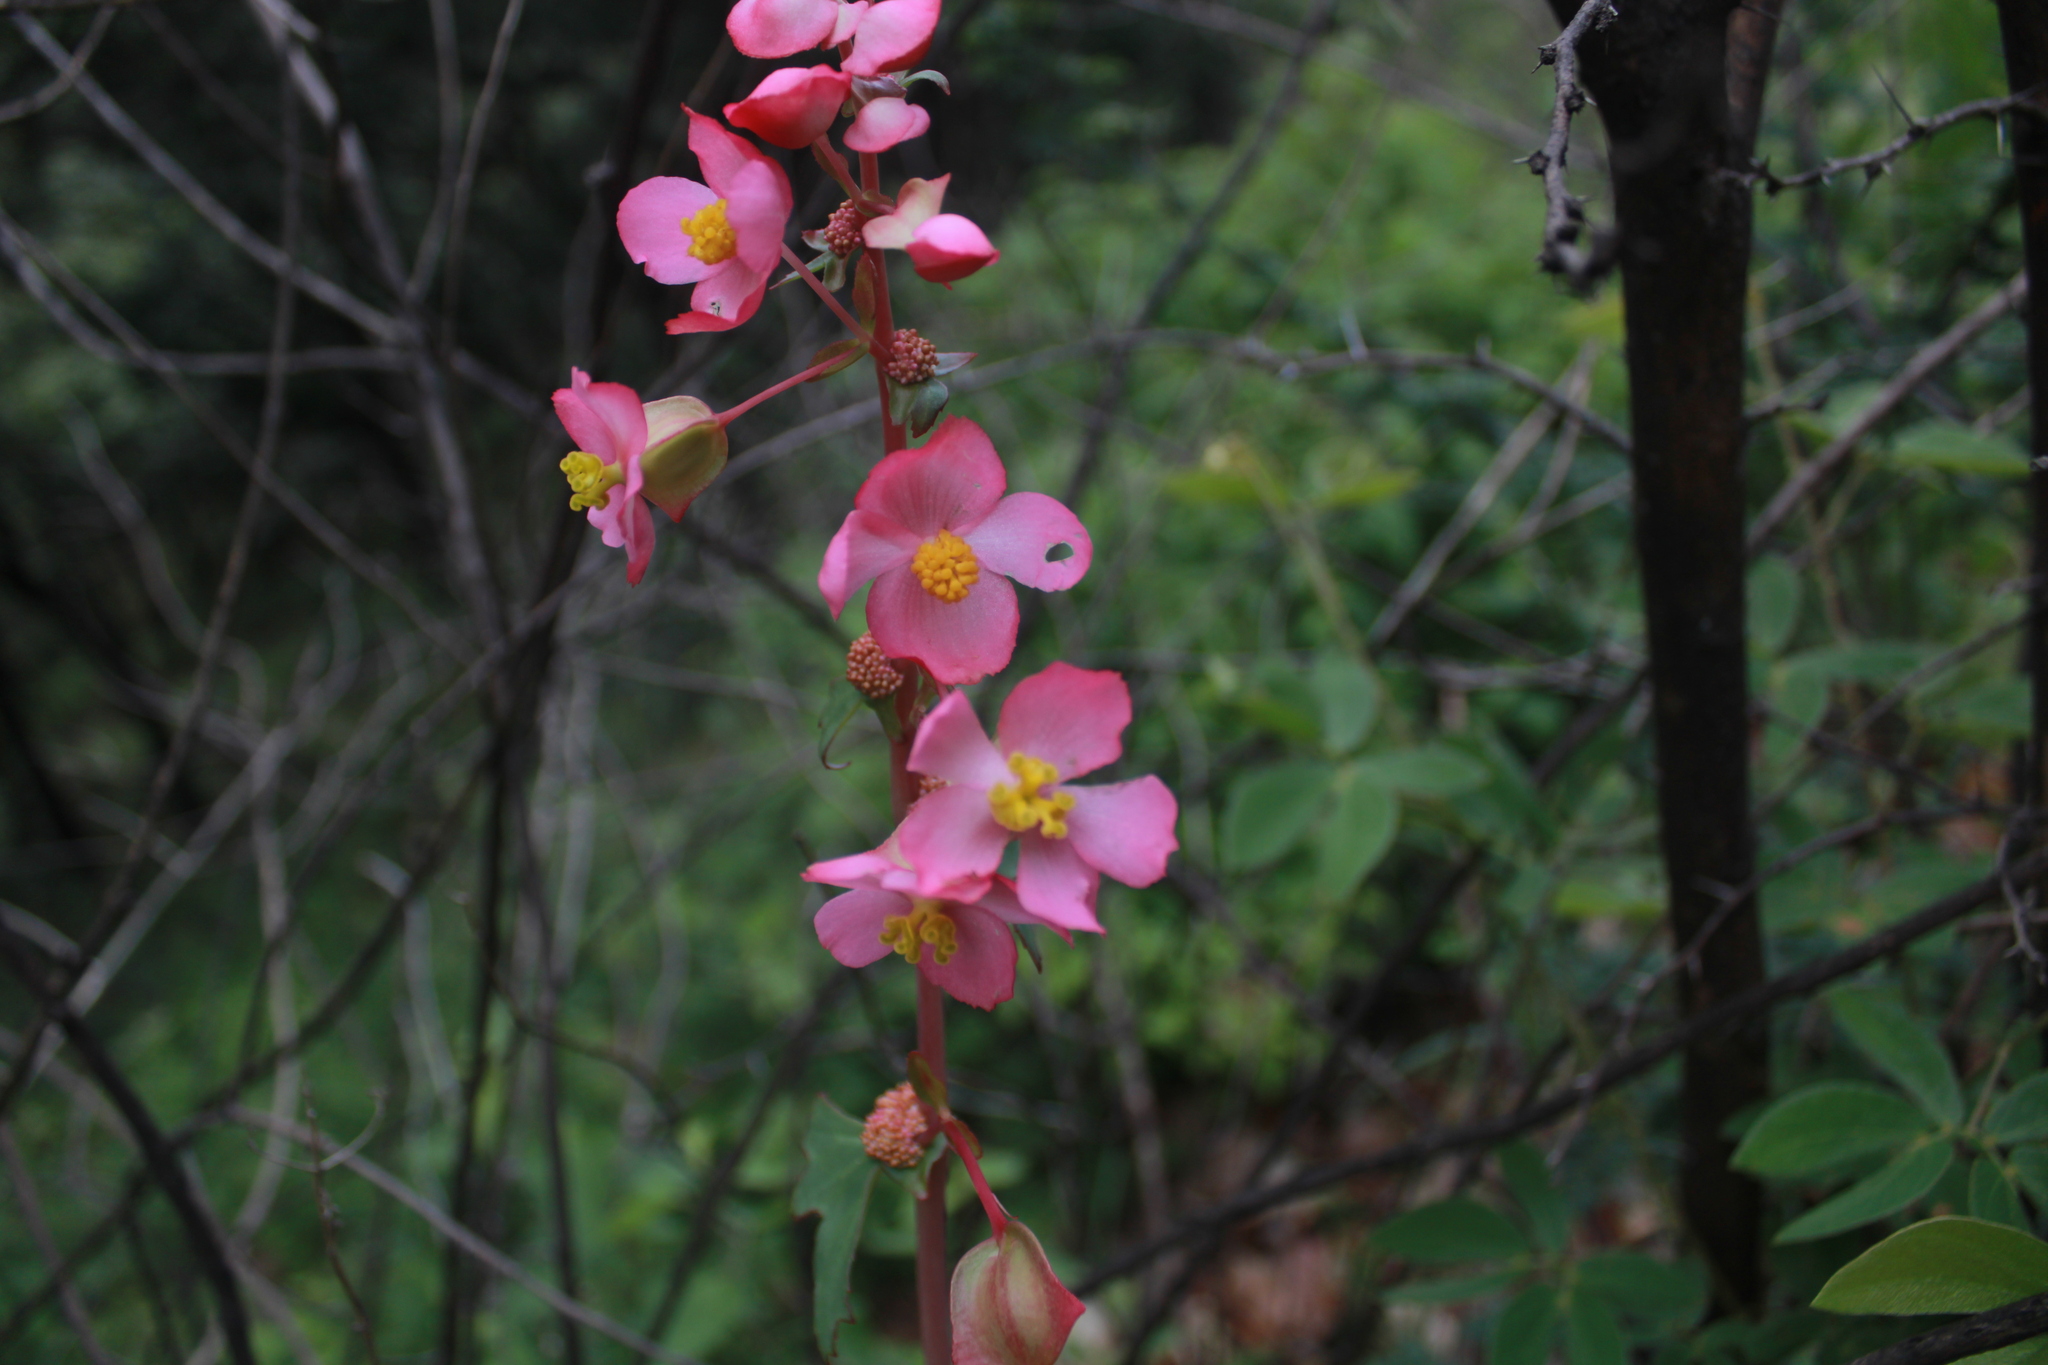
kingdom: Plantae
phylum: Tracheophyta
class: Magnoliopsida
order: Cucurbitales
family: Begoniaceae
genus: Begonia
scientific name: Begonia angustiloba
